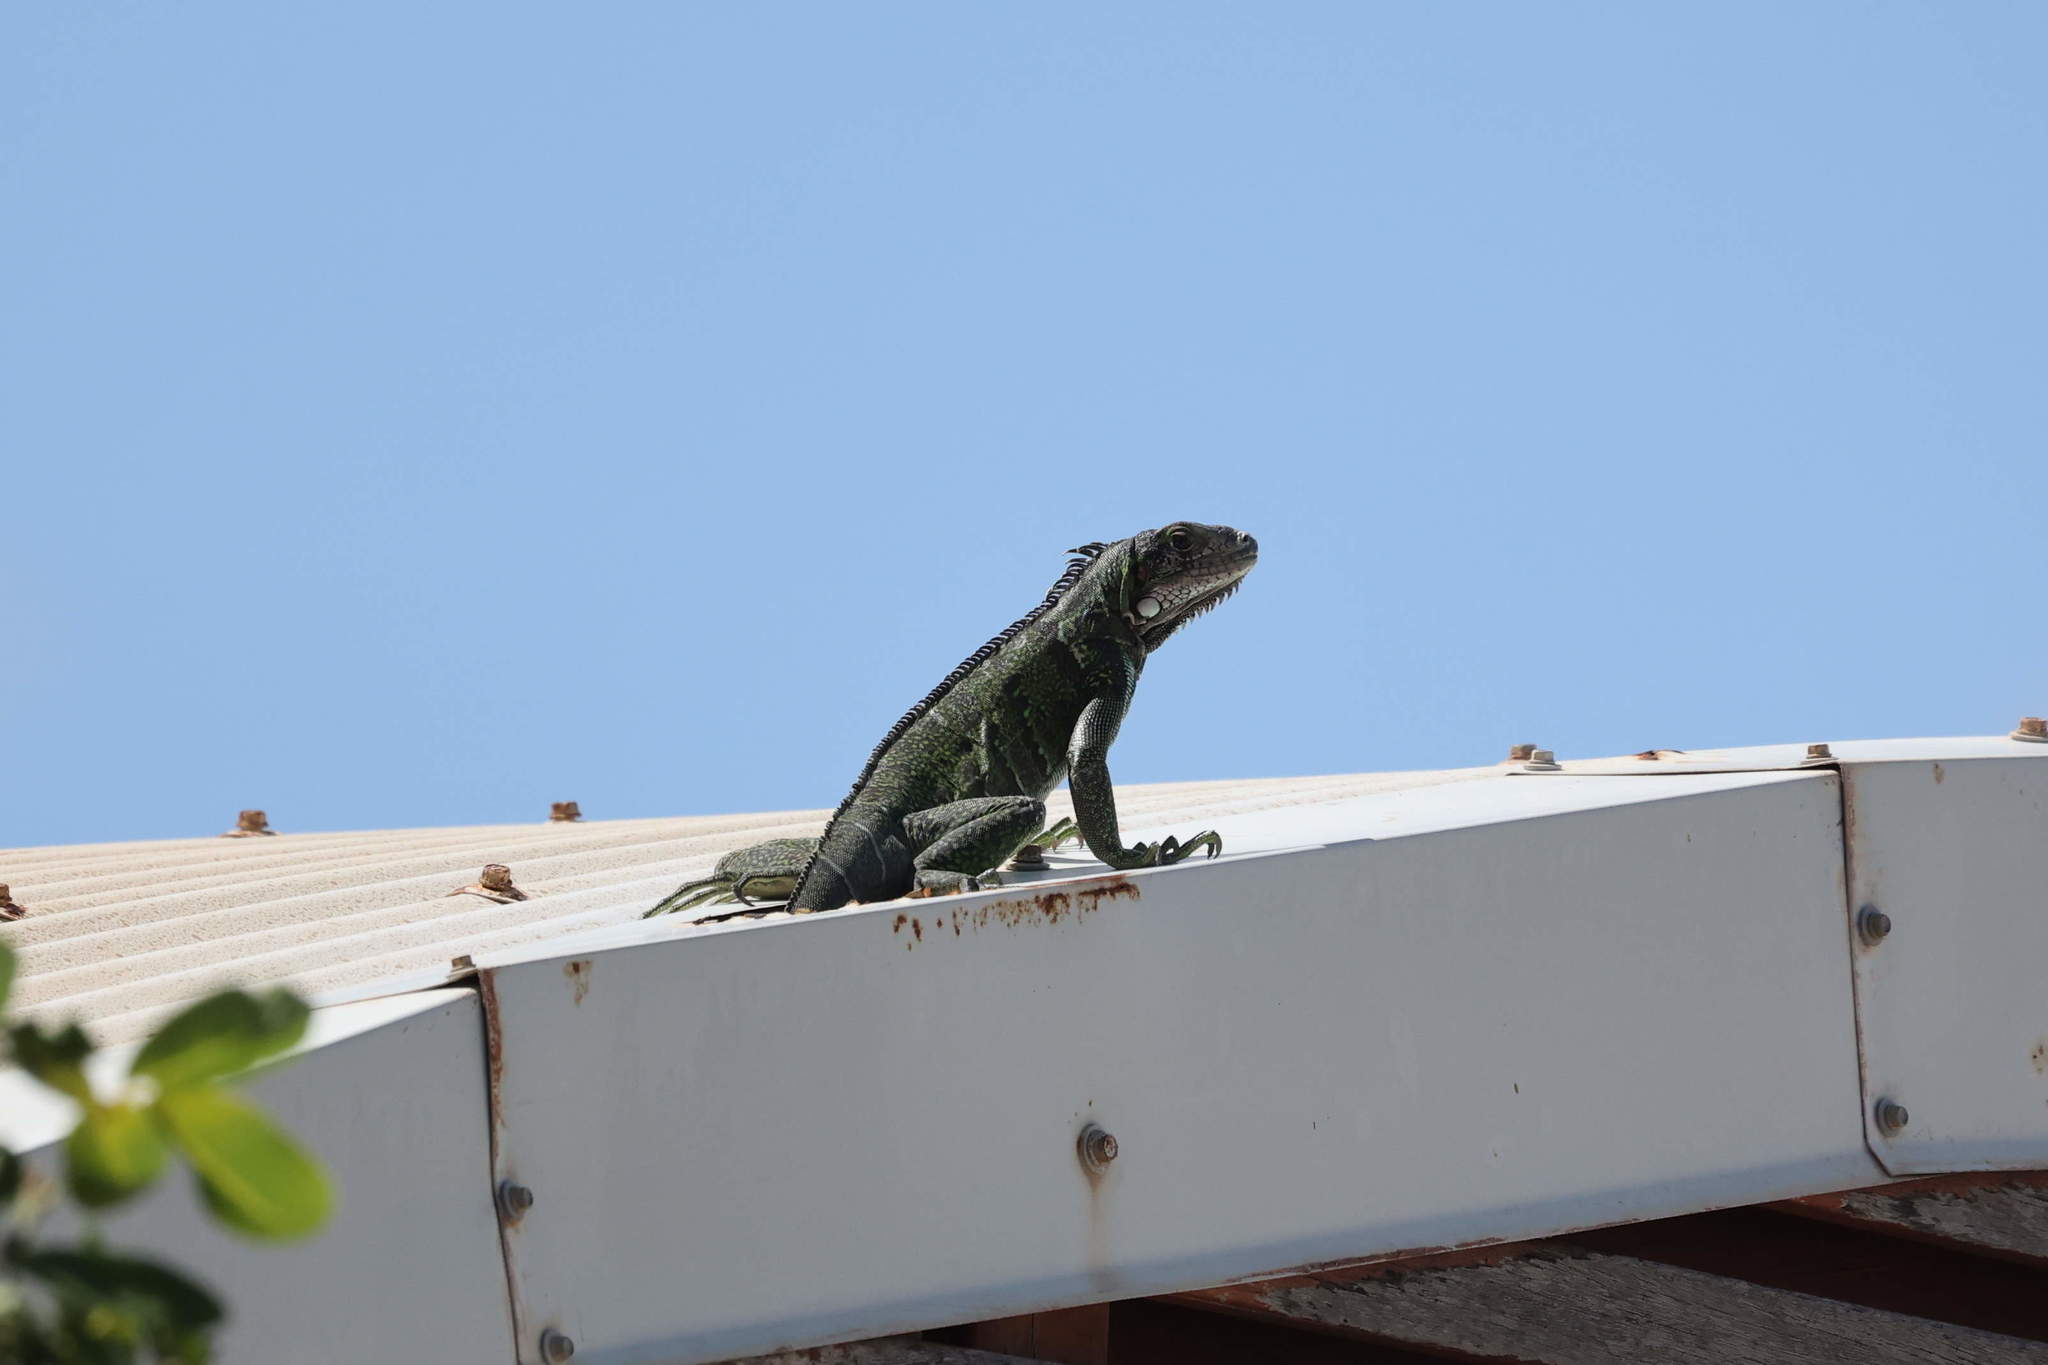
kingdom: Animalia
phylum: Chordata
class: Squamata
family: Iguanidae
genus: Iguana
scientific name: Iguana iguana
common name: Green iguana
